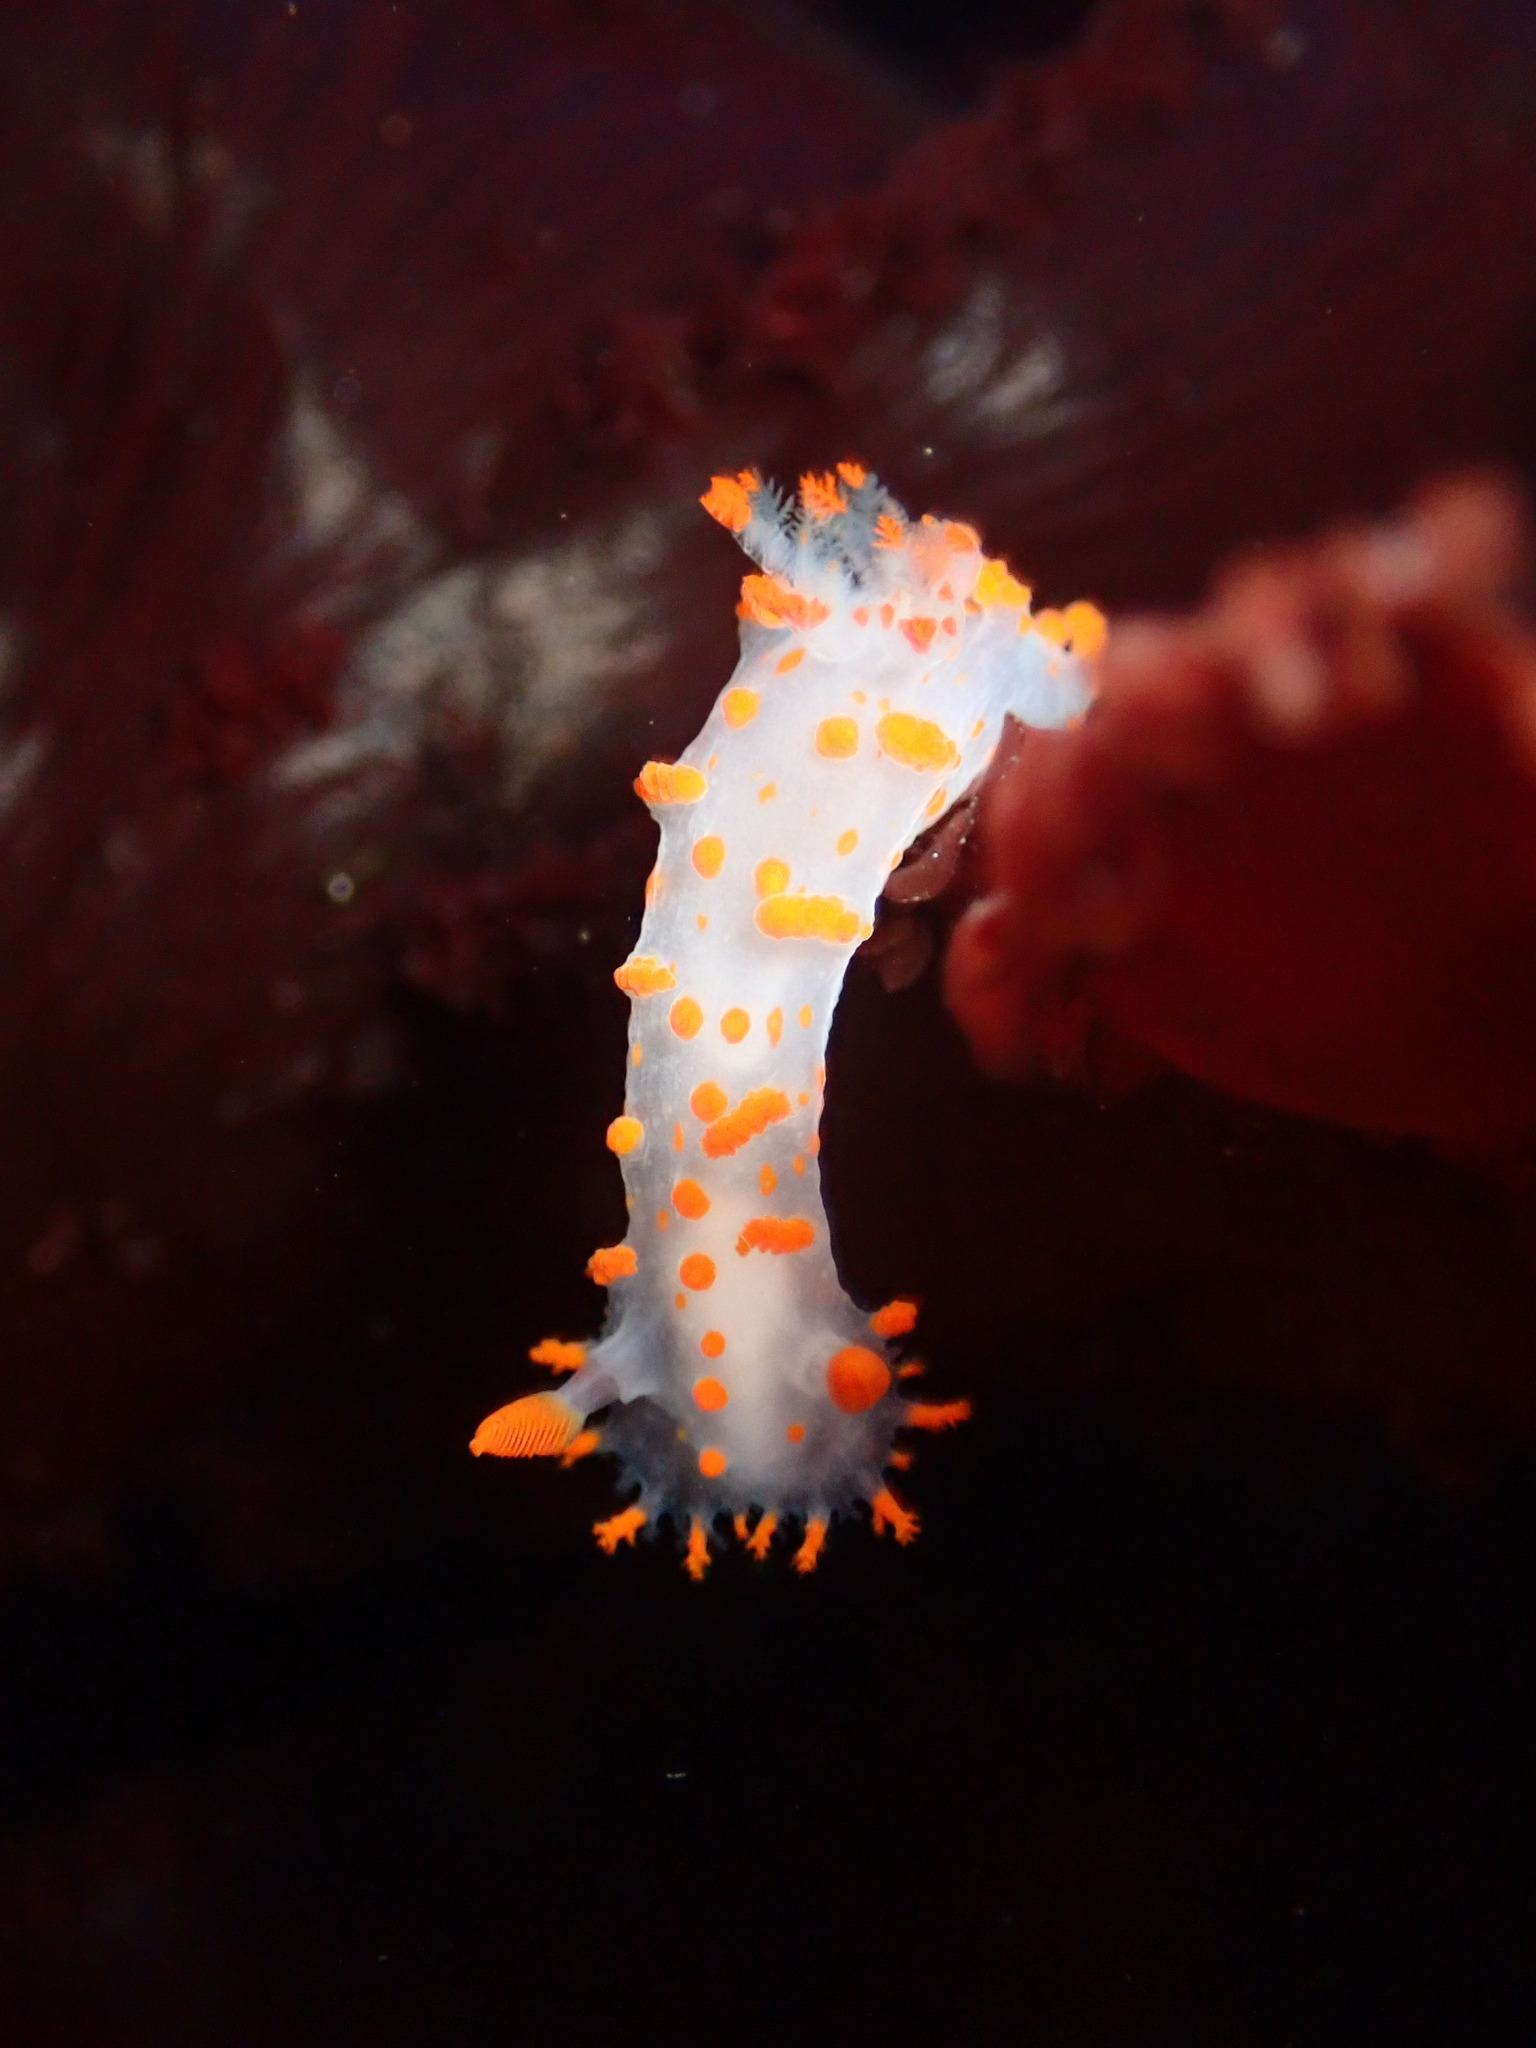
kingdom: Animalia
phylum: Mollusca
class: Gastropoda
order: Nudibranchia
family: Polyceridae
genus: Triopha
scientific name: Triopha catalinae
